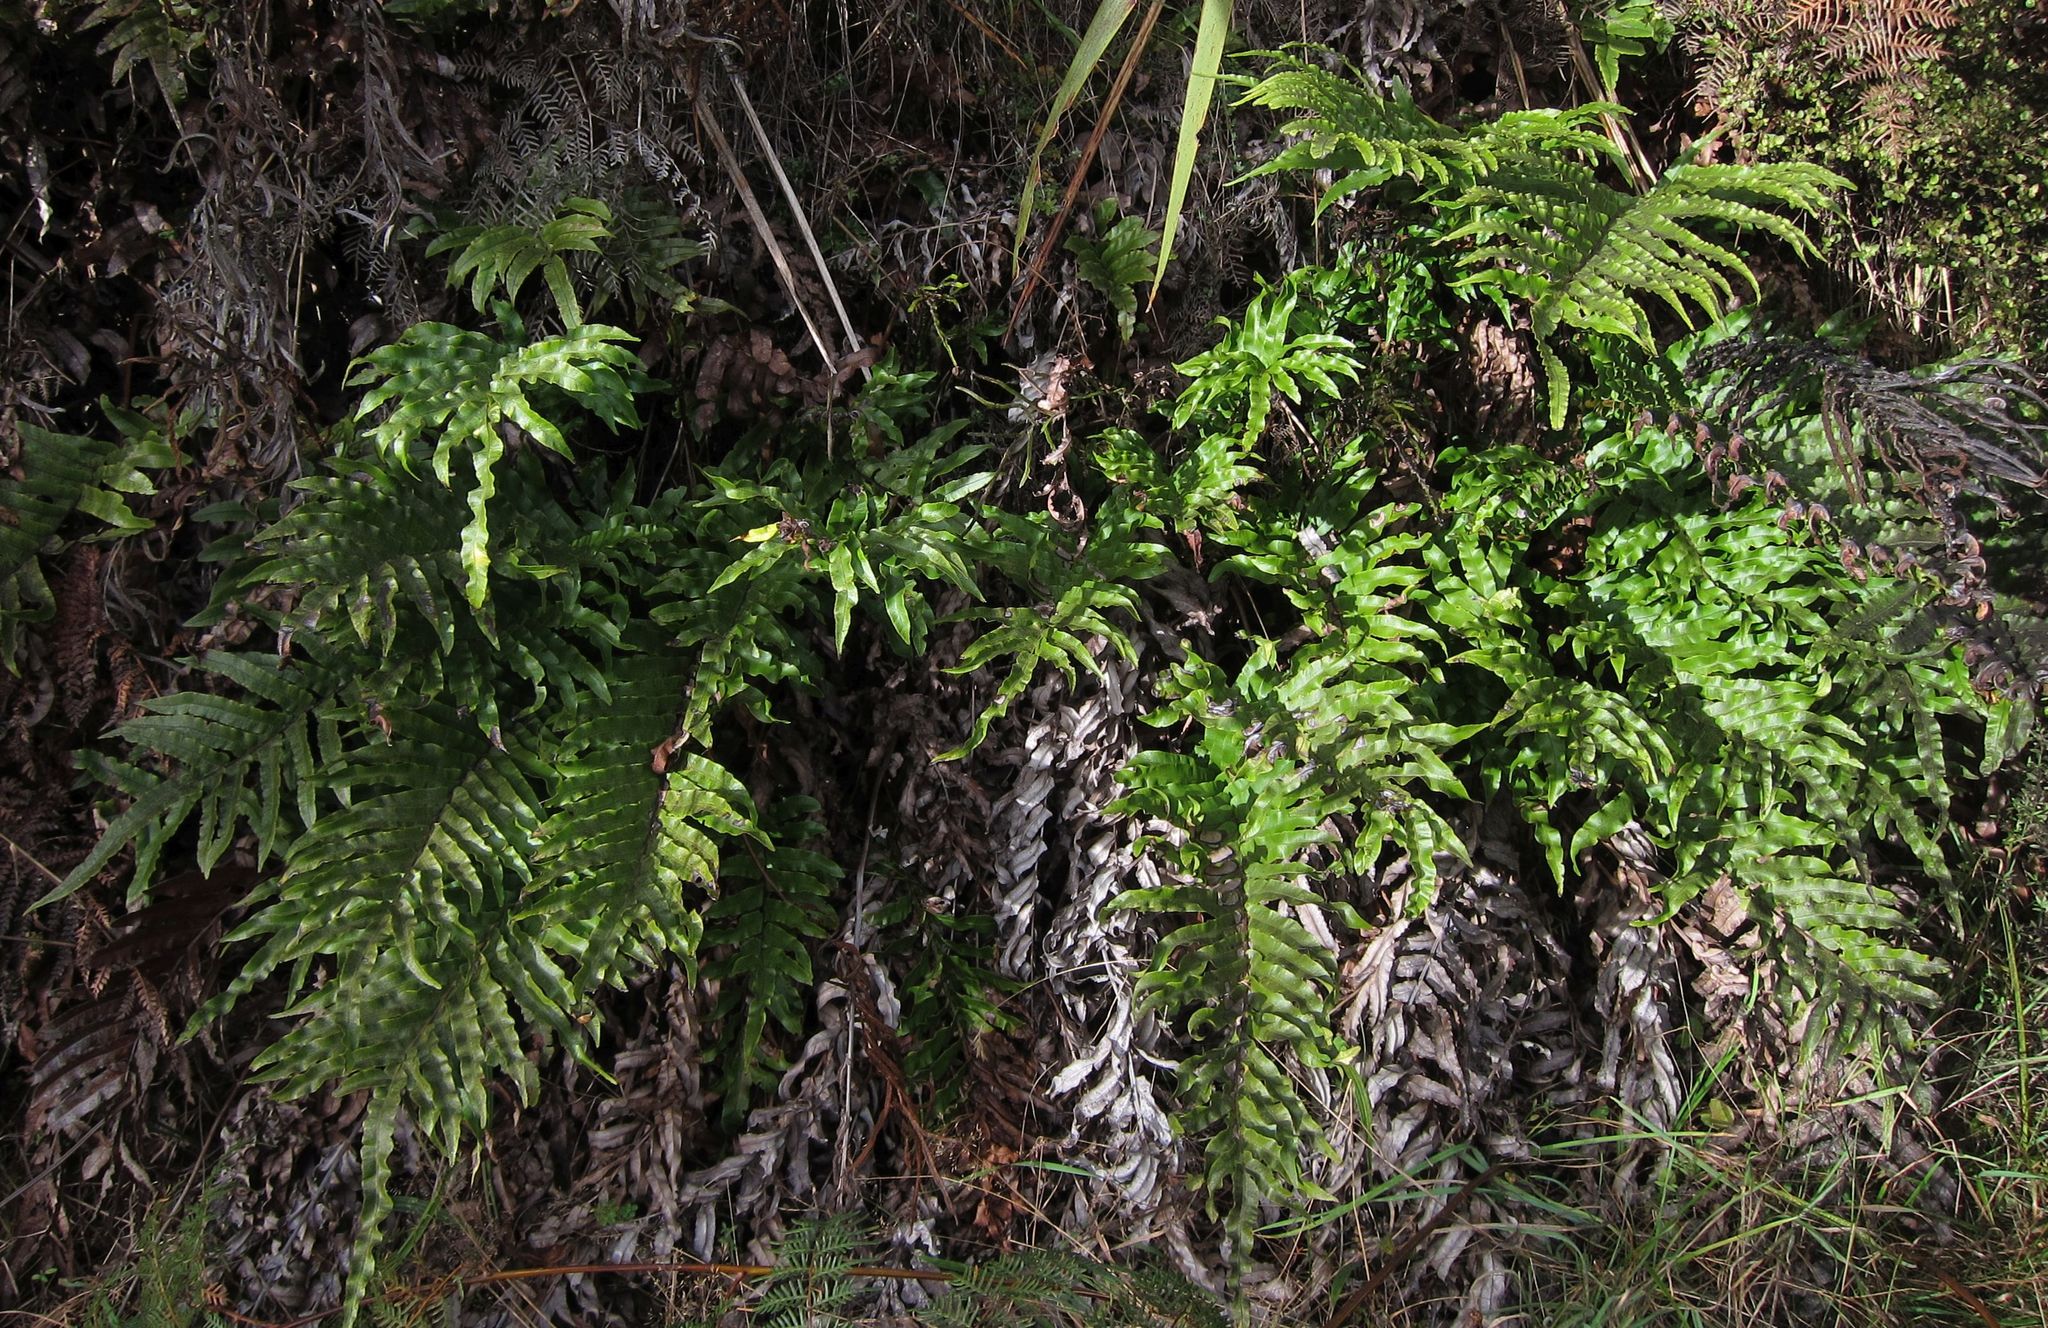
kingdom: Plantae
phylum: Tracheophyta
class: Polypodiopsida
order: Polypodiales
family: Blechnaceae
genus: Parablechnum
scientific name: Parablechnum novae-zelandiae
